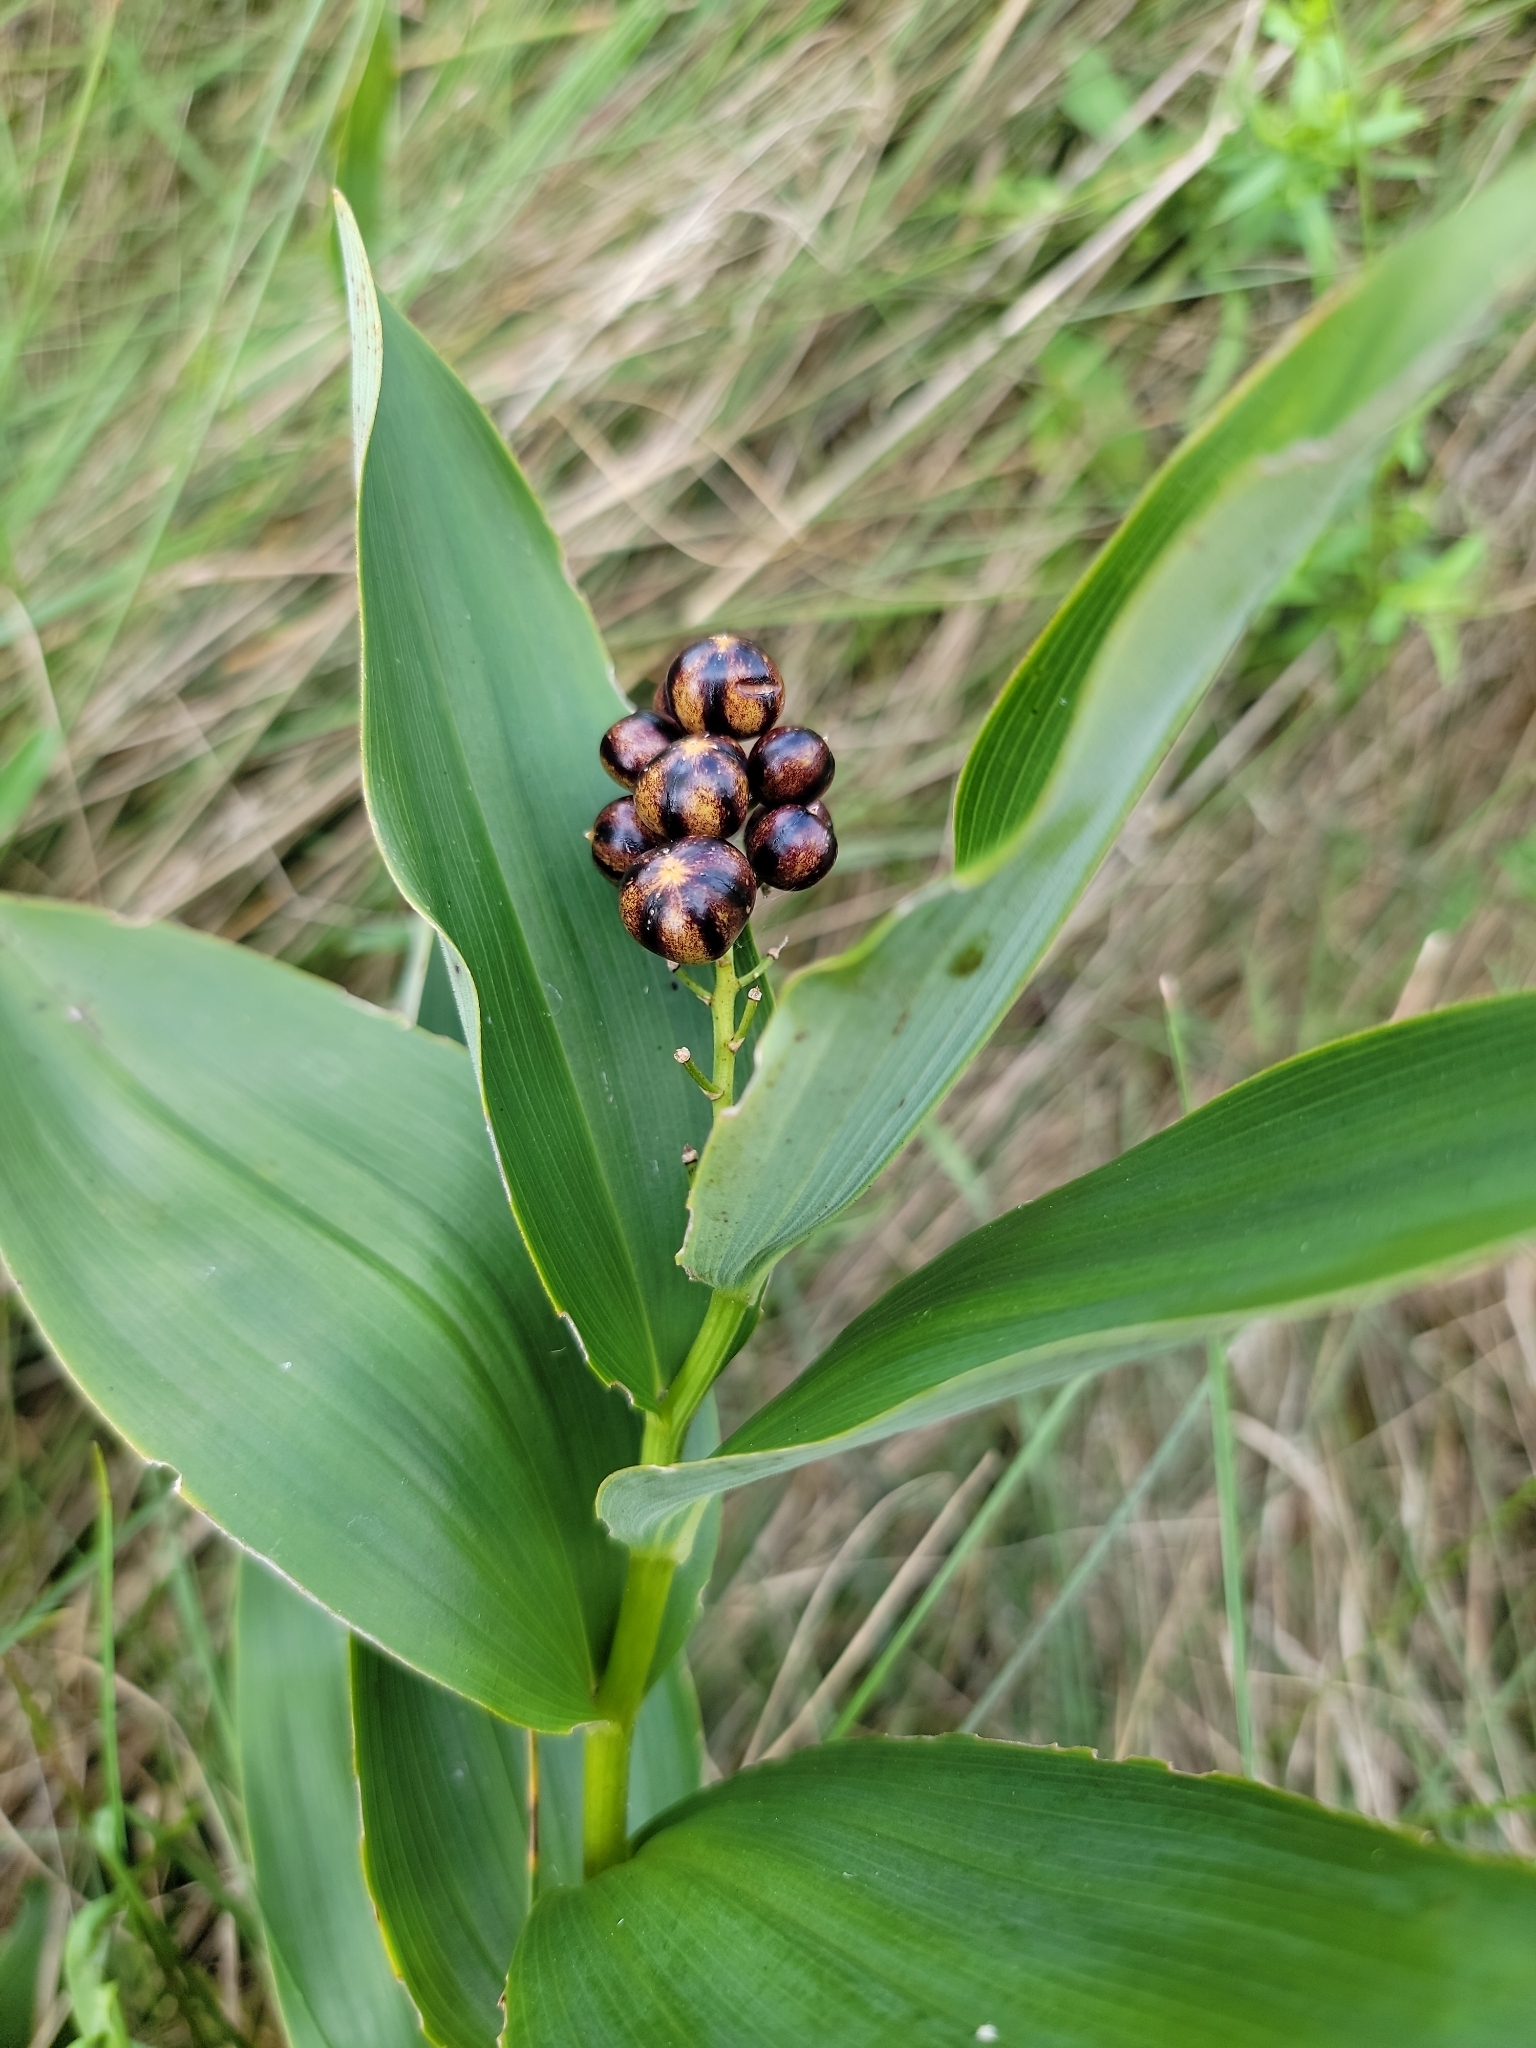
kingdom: Plantae
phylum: Tracheophyta
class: Liliopsida
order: Asparagales
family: Asparagaceae
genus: Maianthemum
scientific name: Maianthemum stellatum
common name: Little false solomon's seal
